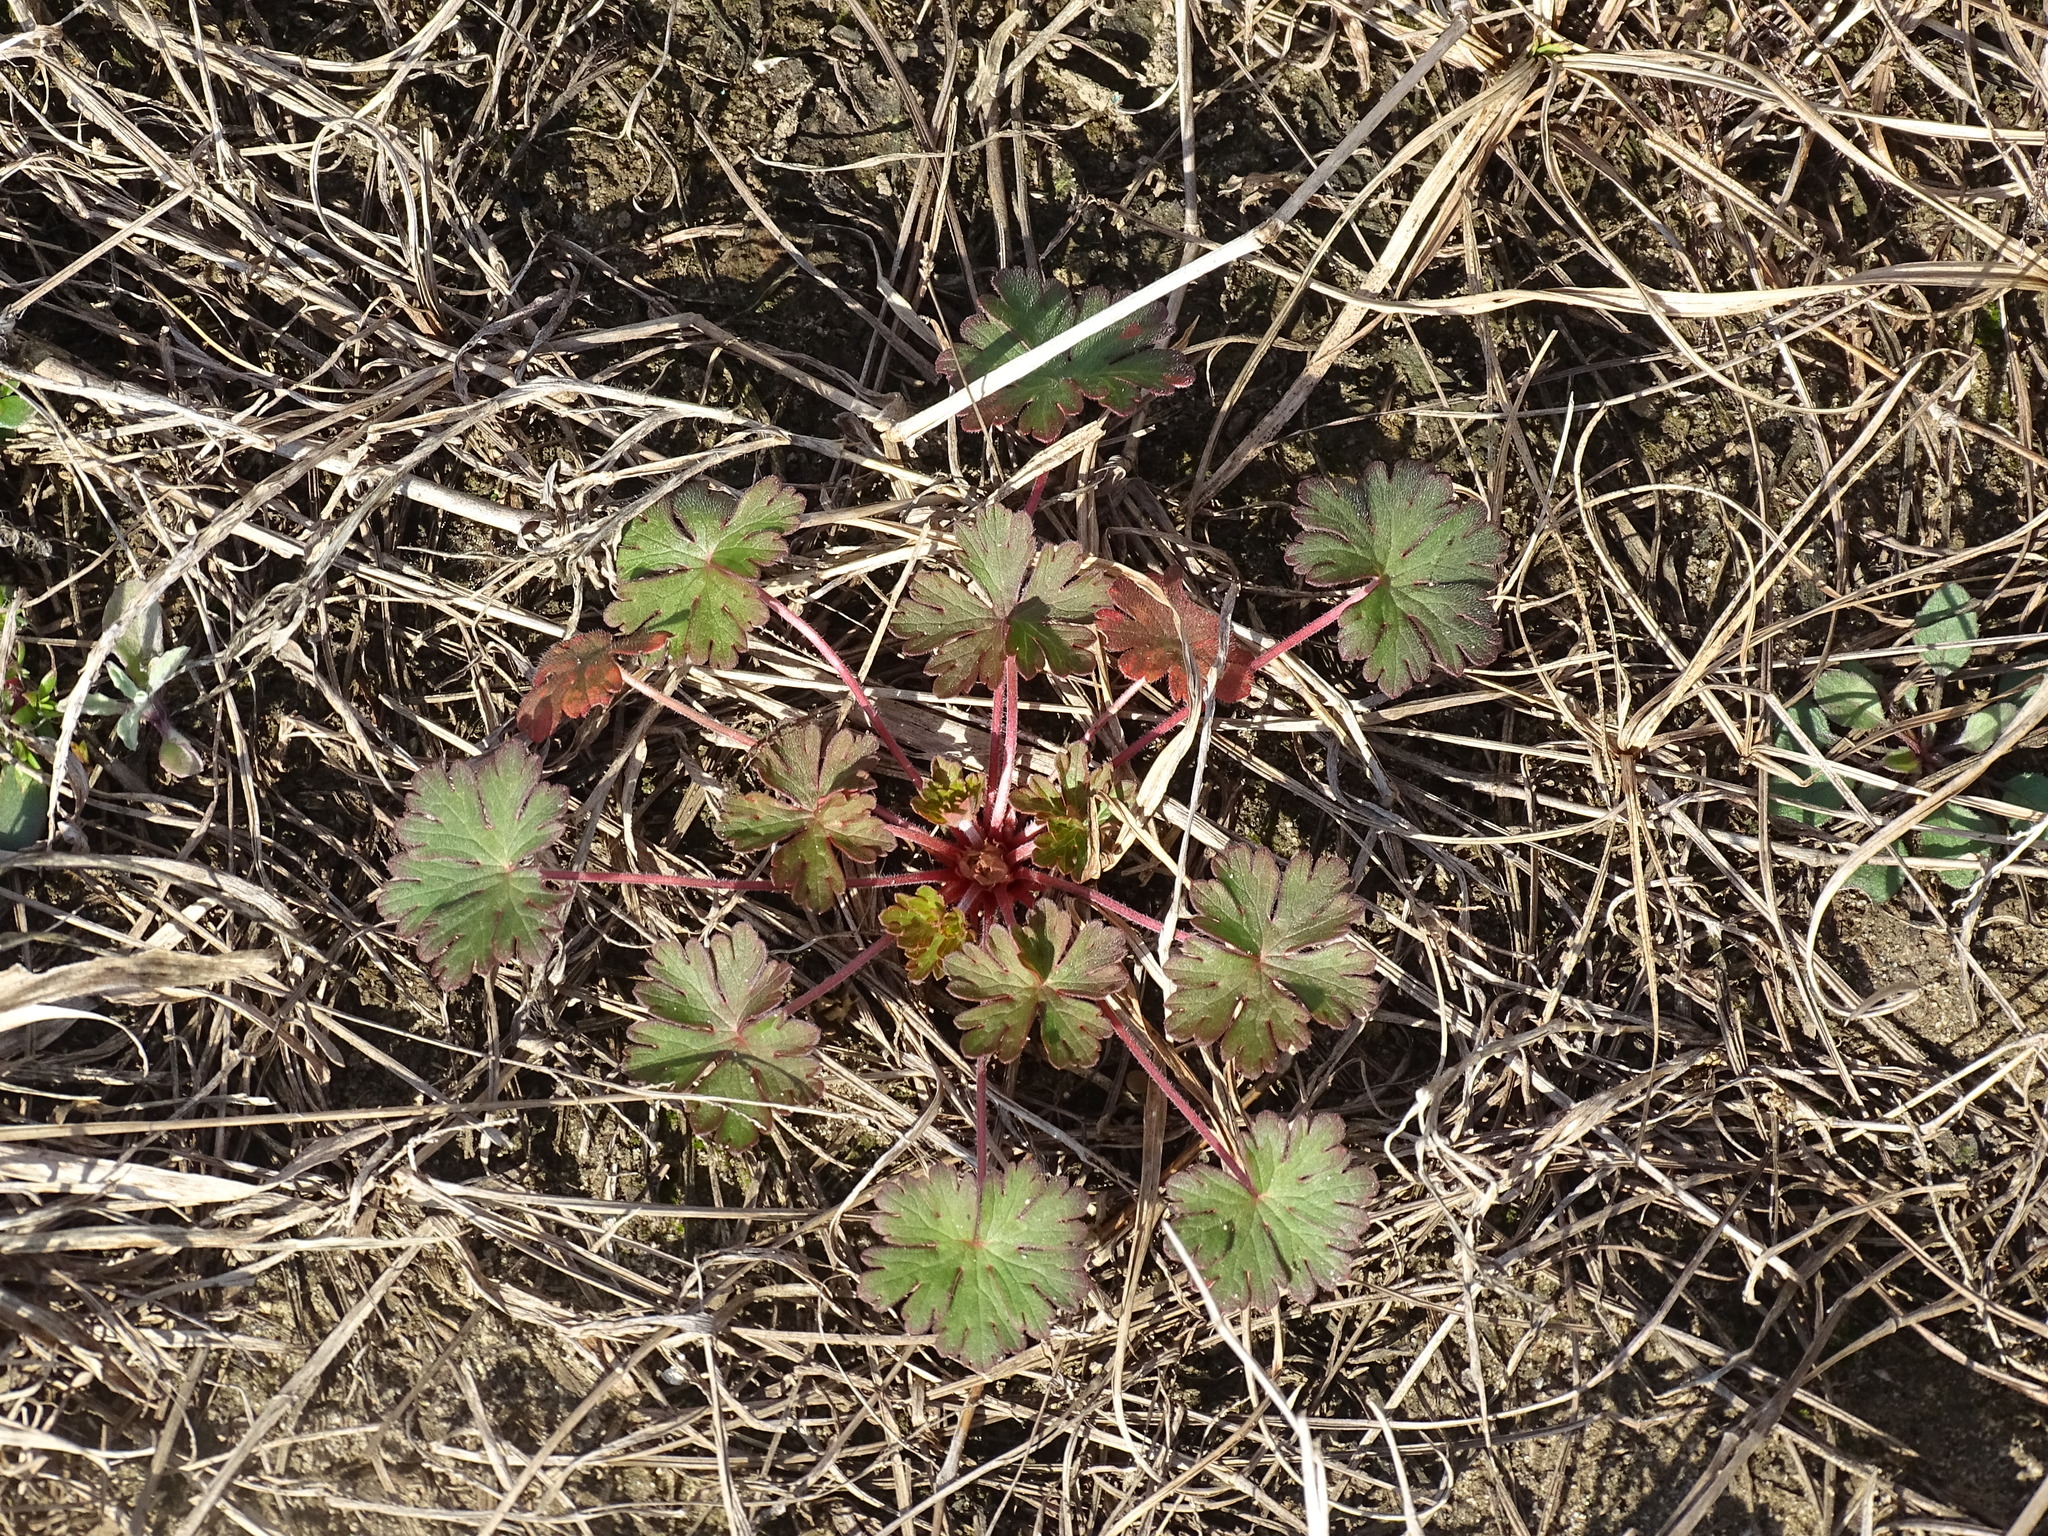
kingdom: Plantae
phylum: Tracheophyta
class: Magnoliopsida
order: Geraniales
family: Geraniaceae
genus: Geranium
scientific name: Geranium carolinianum
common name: Carolina crane's-bill
